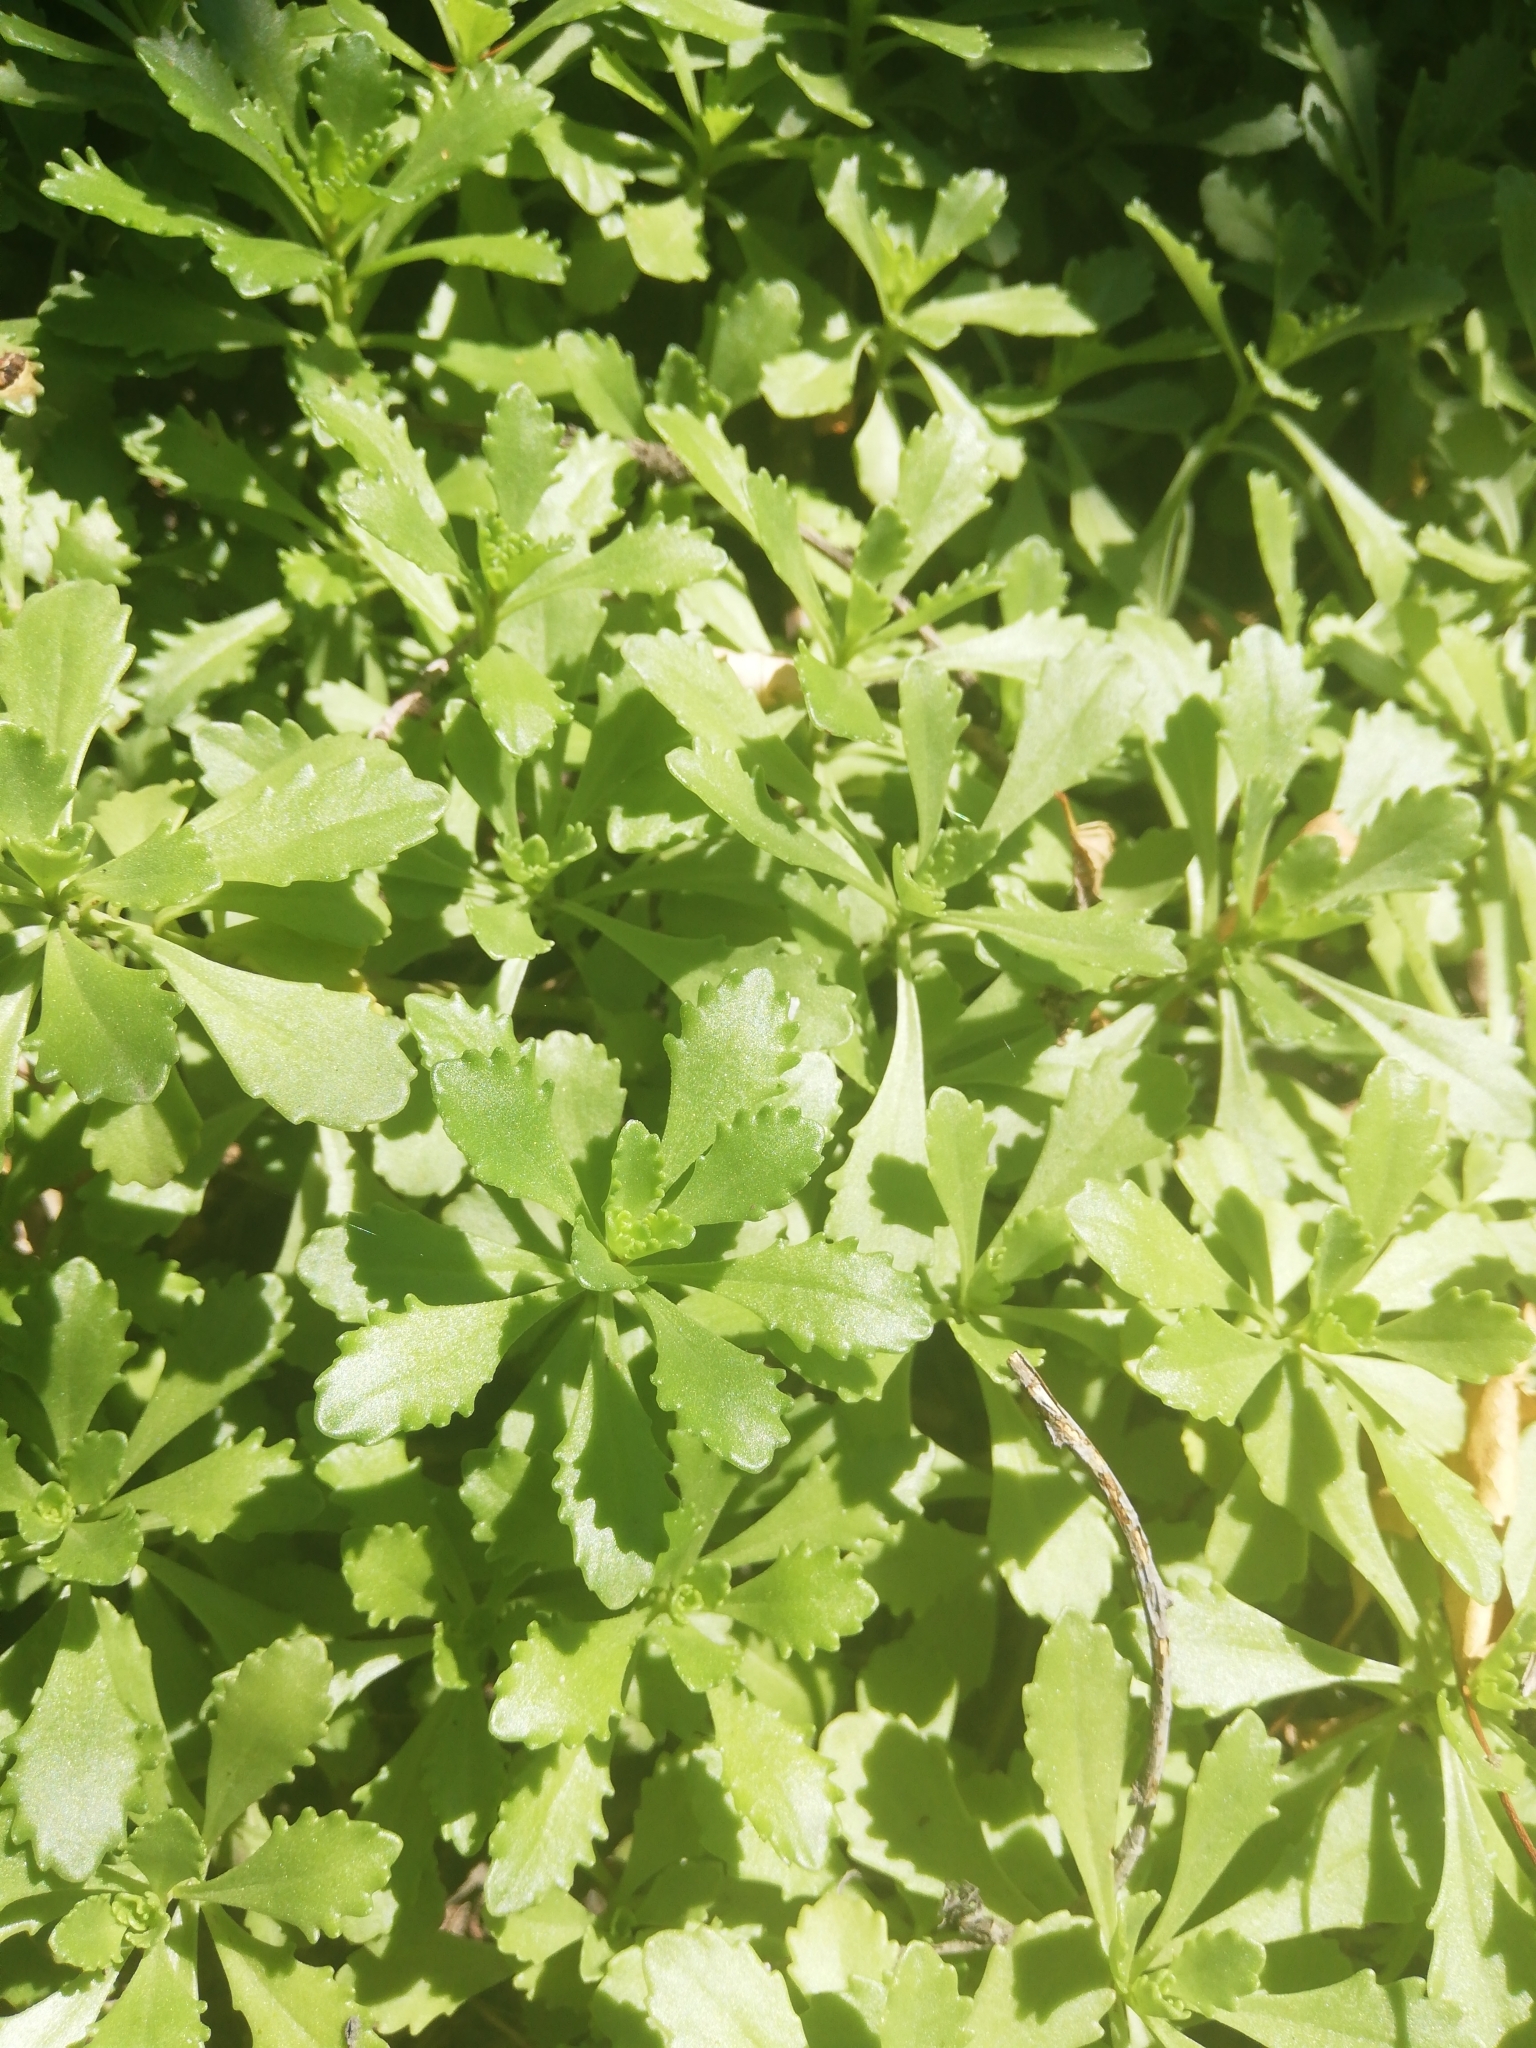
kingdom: Plantae
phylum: Tracheophyta
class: Magnoliopsida
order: Saxifragales
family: Crassulaceae
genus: Phedimus
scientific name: Phedimus hybridus
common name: Hybrid stonecrop
